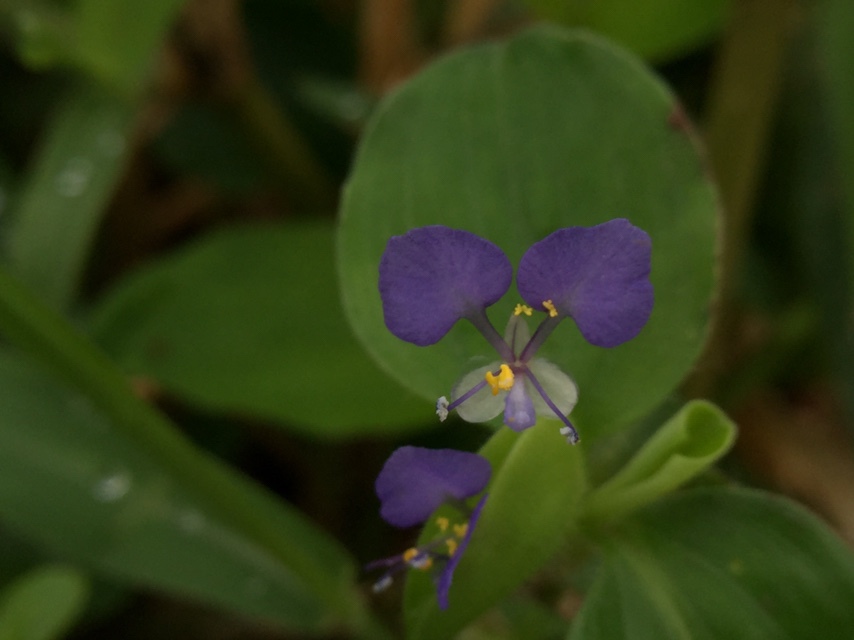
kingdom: Plantae
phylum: Tracheophyta
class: Liliopsida
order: Commelinales
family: Commelinaceae
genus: Commelina
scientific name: Commelina benghalensis
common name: Jio
